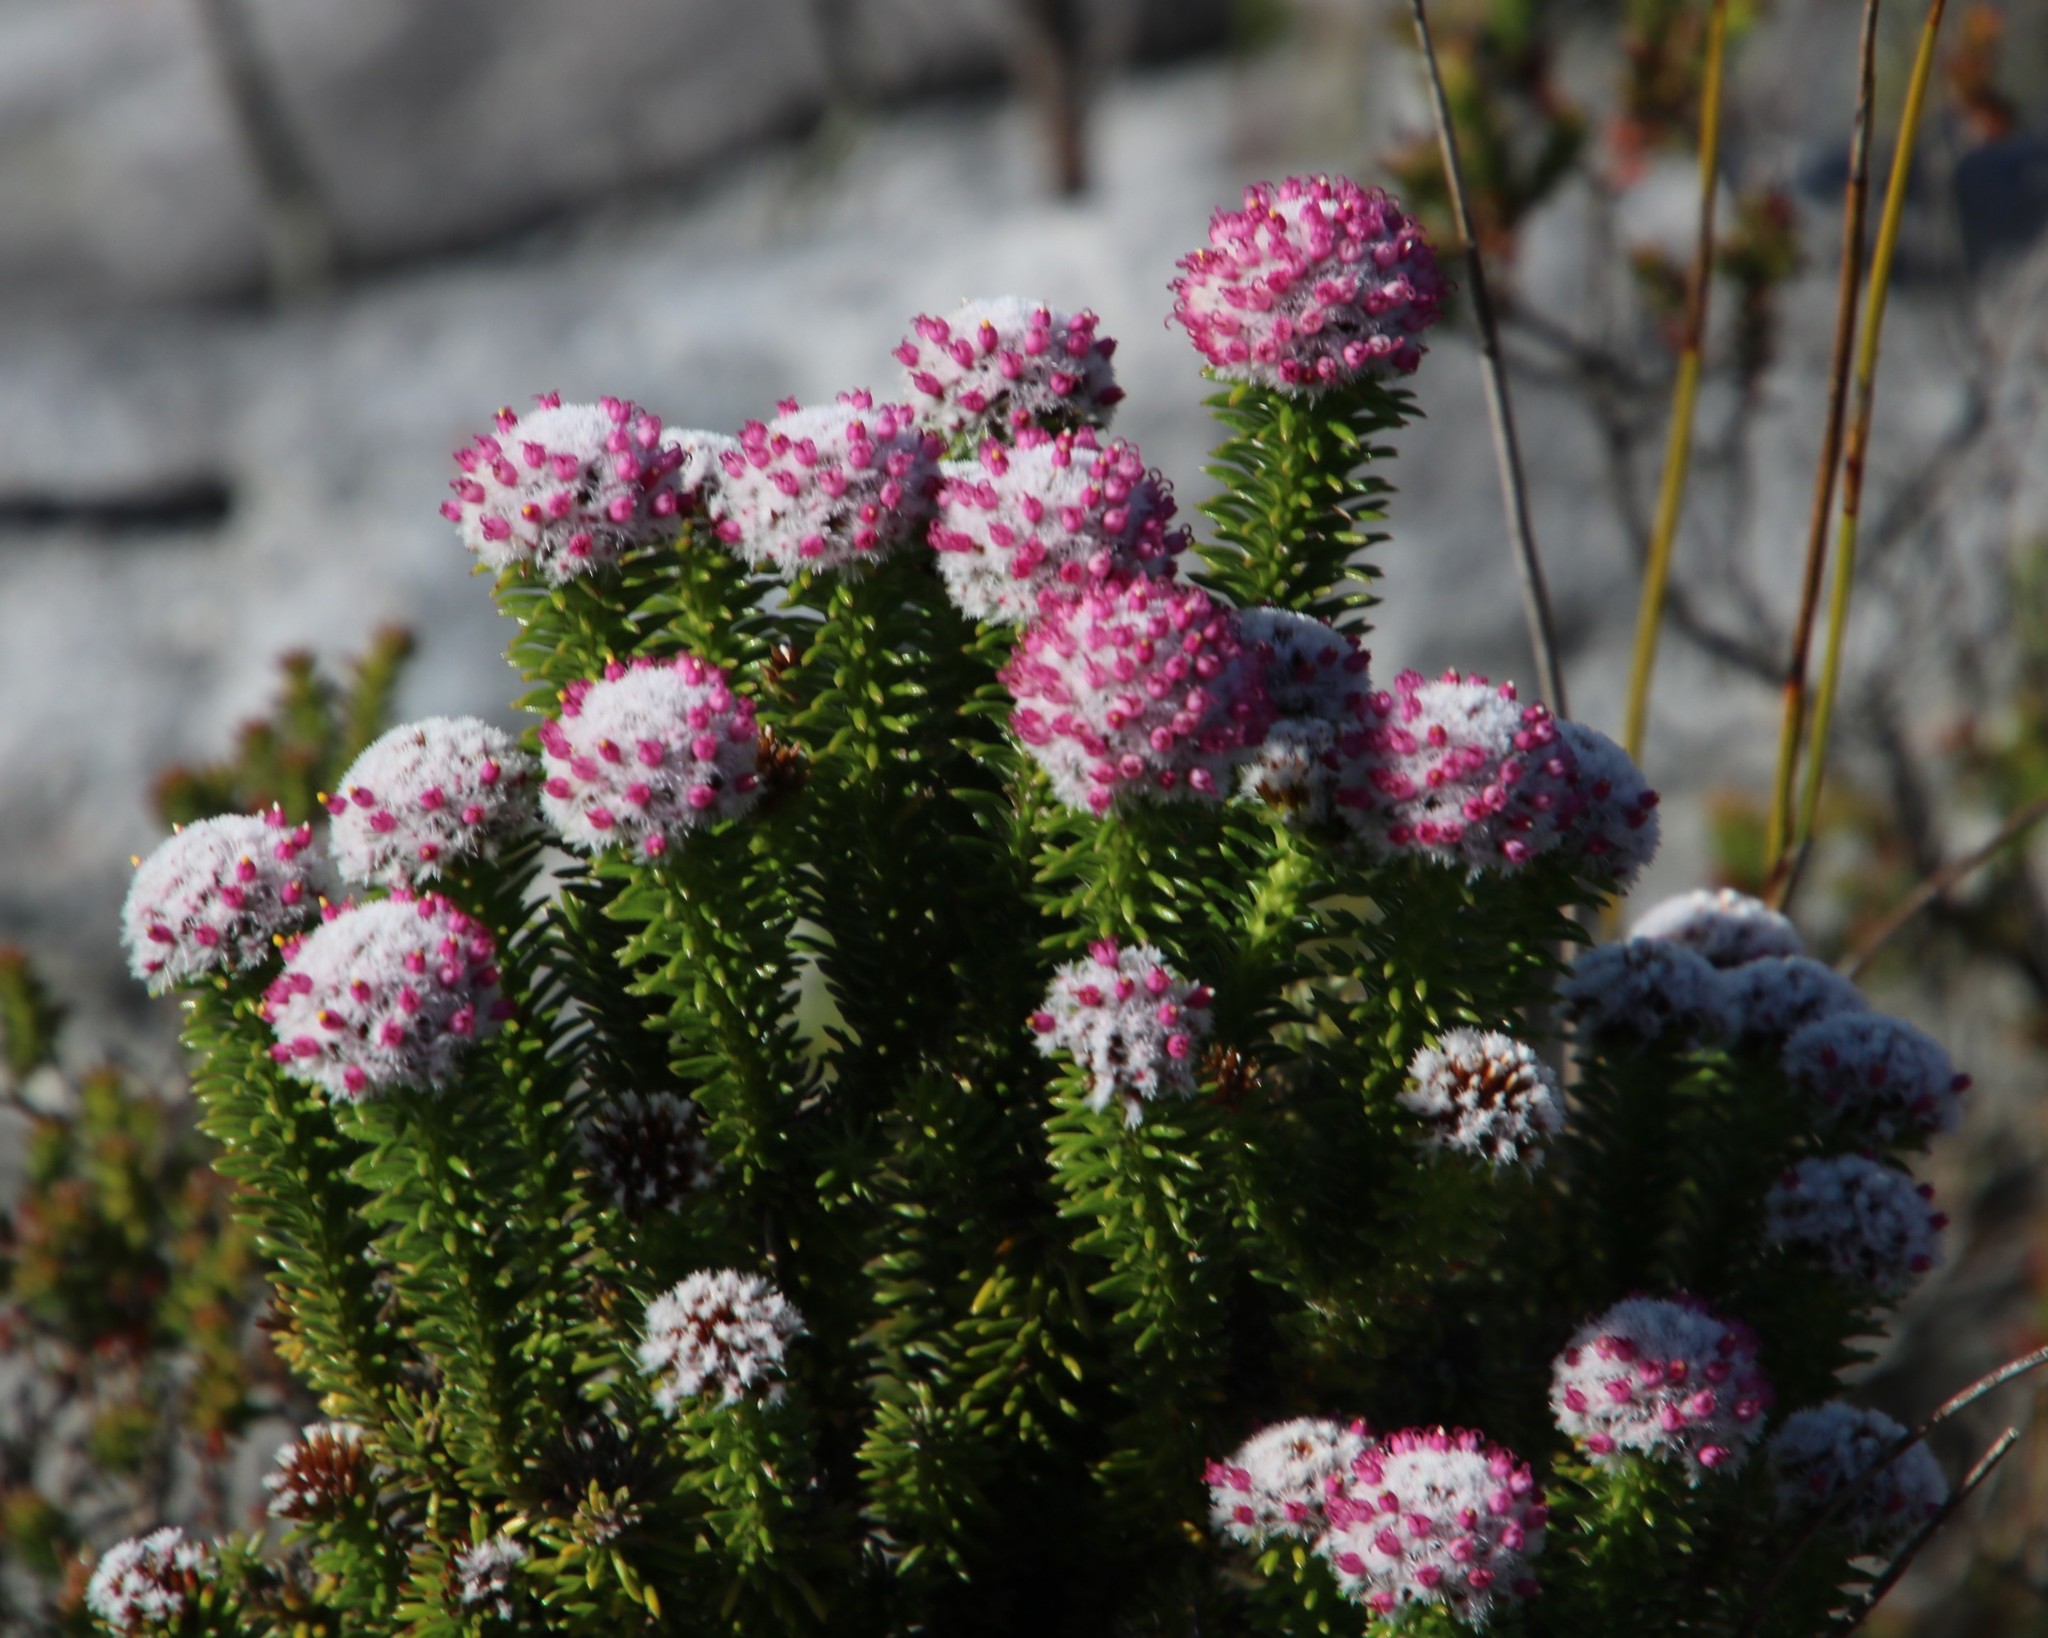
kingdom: Plantae
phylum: Tracheophyta
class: Magnoliopsida
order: Asterales
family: Asteraceae
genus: Stoebe
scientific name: Stoebe rosea
